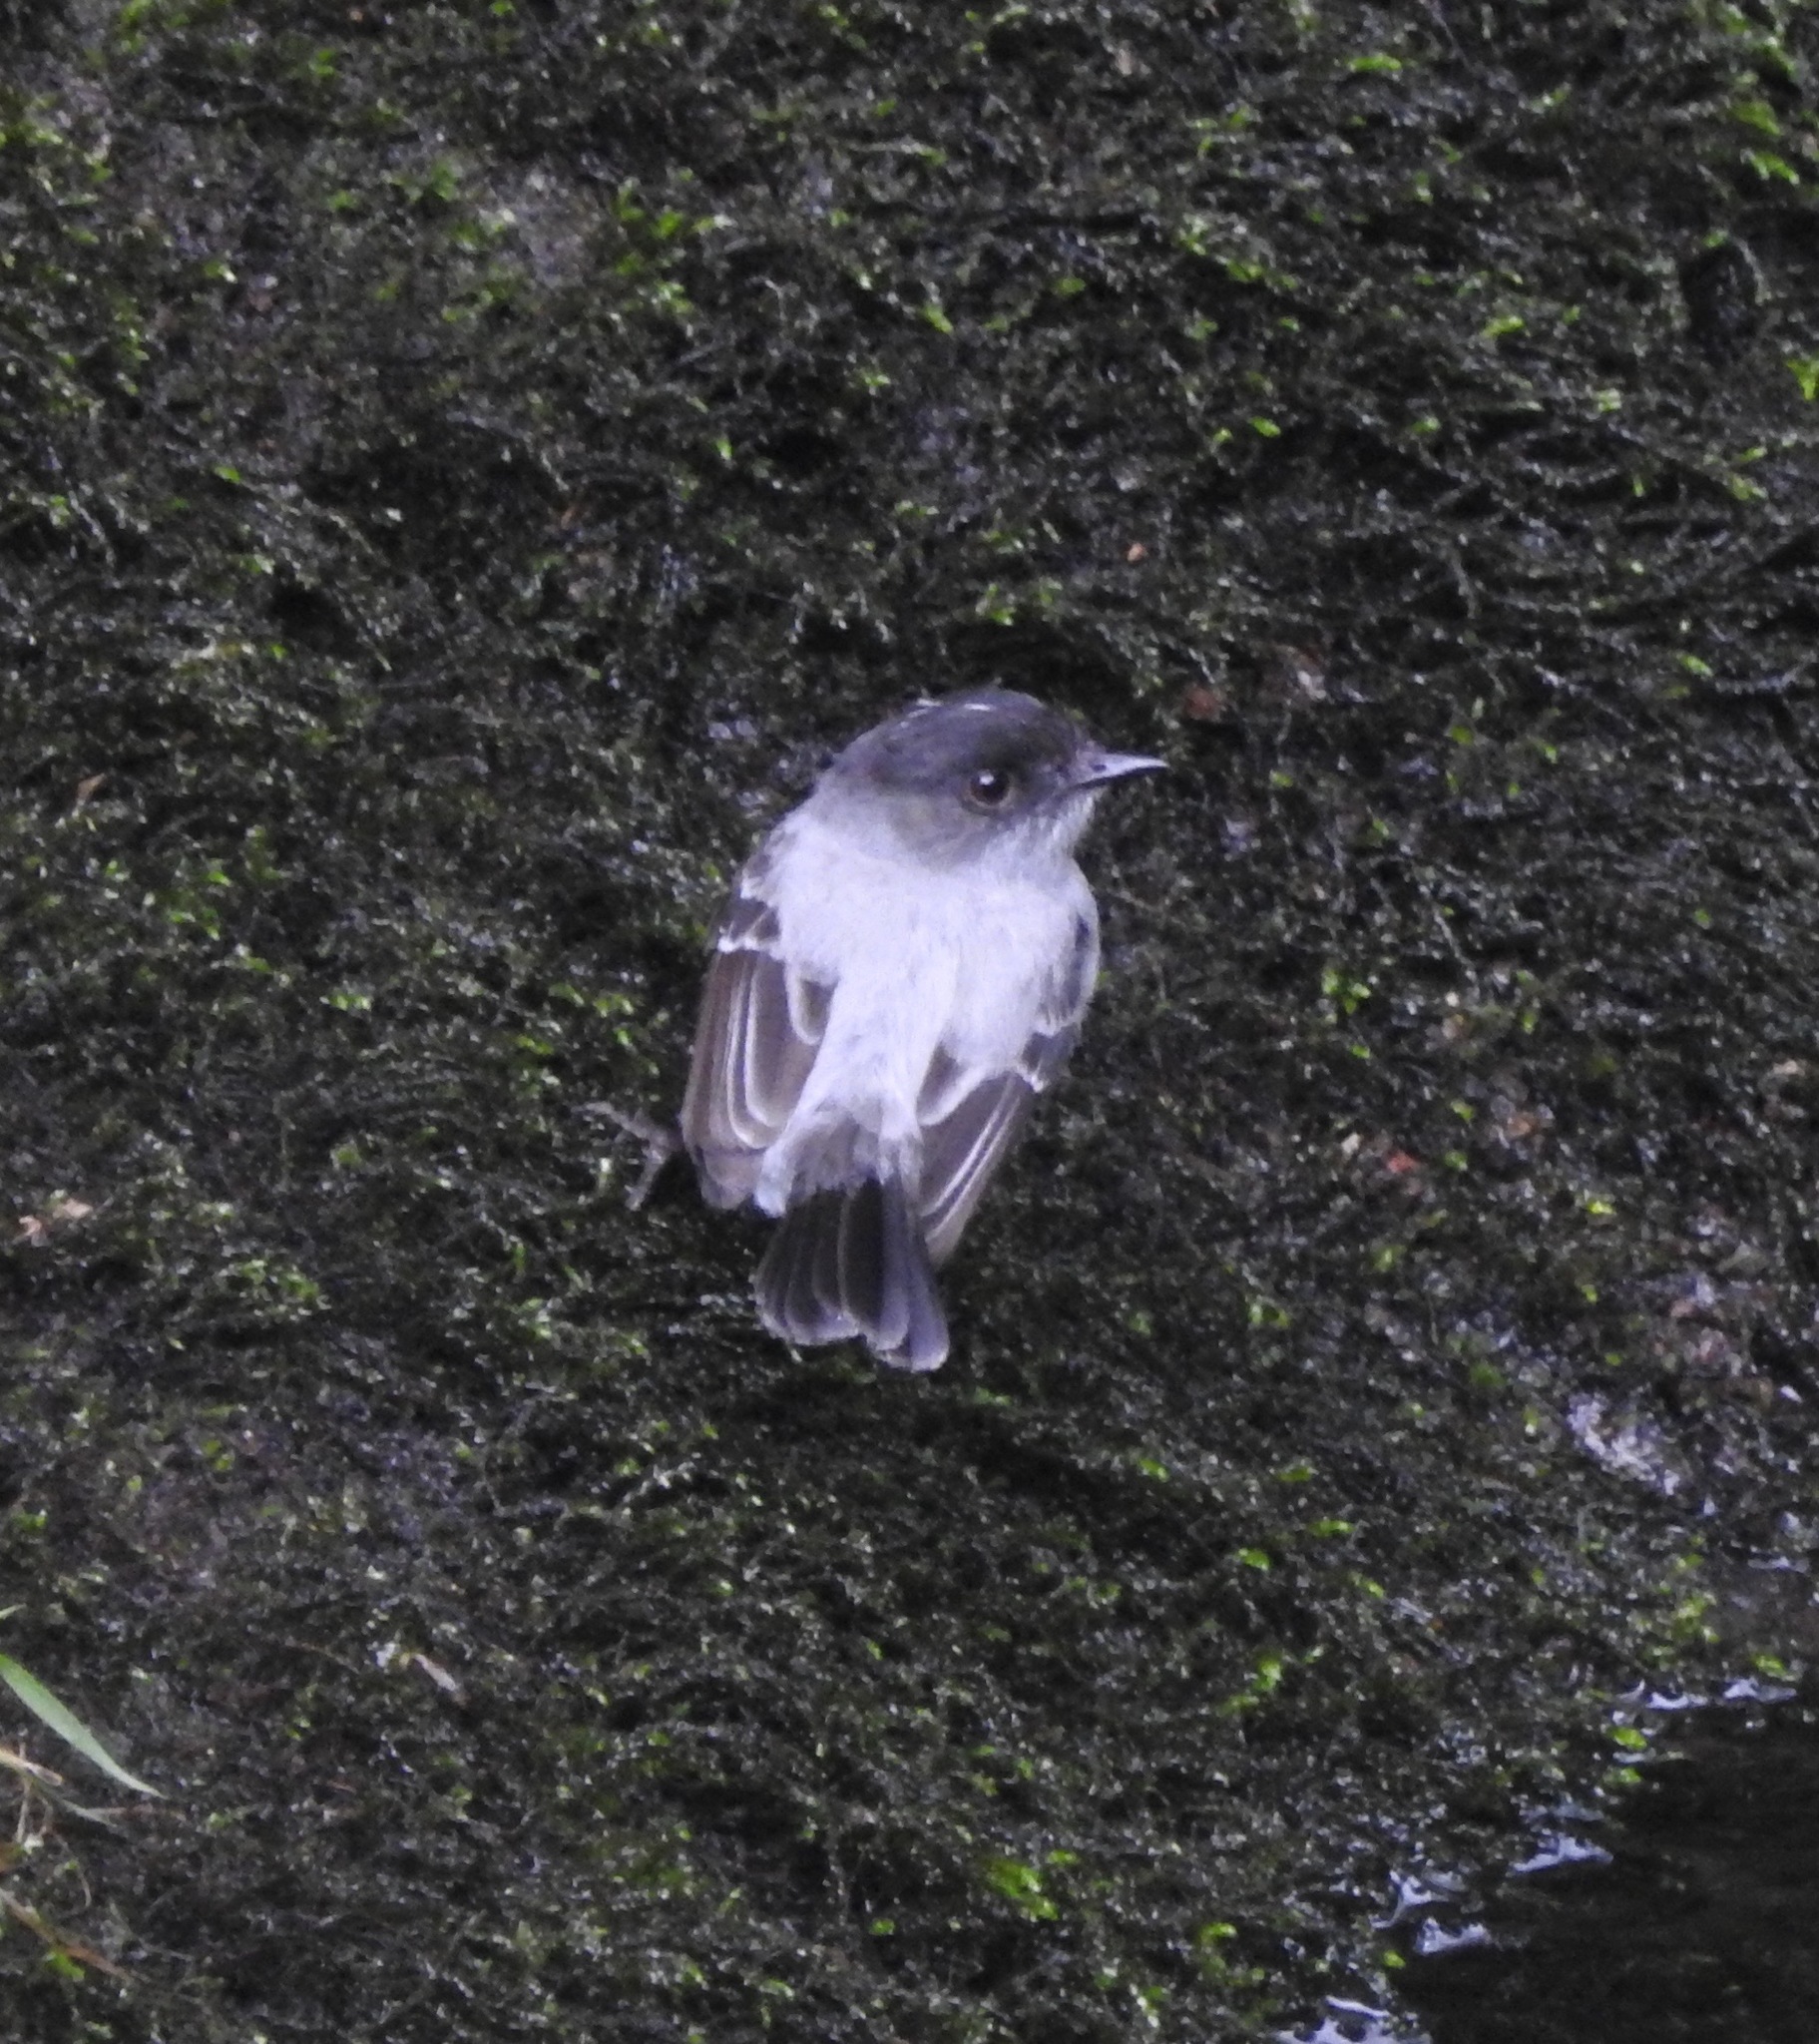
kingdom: Animalia
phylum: Chordata
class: Aves
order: Passeriformes
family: Tyrannidae
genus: Serpophaga
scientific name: Serpophaga cinerea
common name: Torrent tyrannulet
